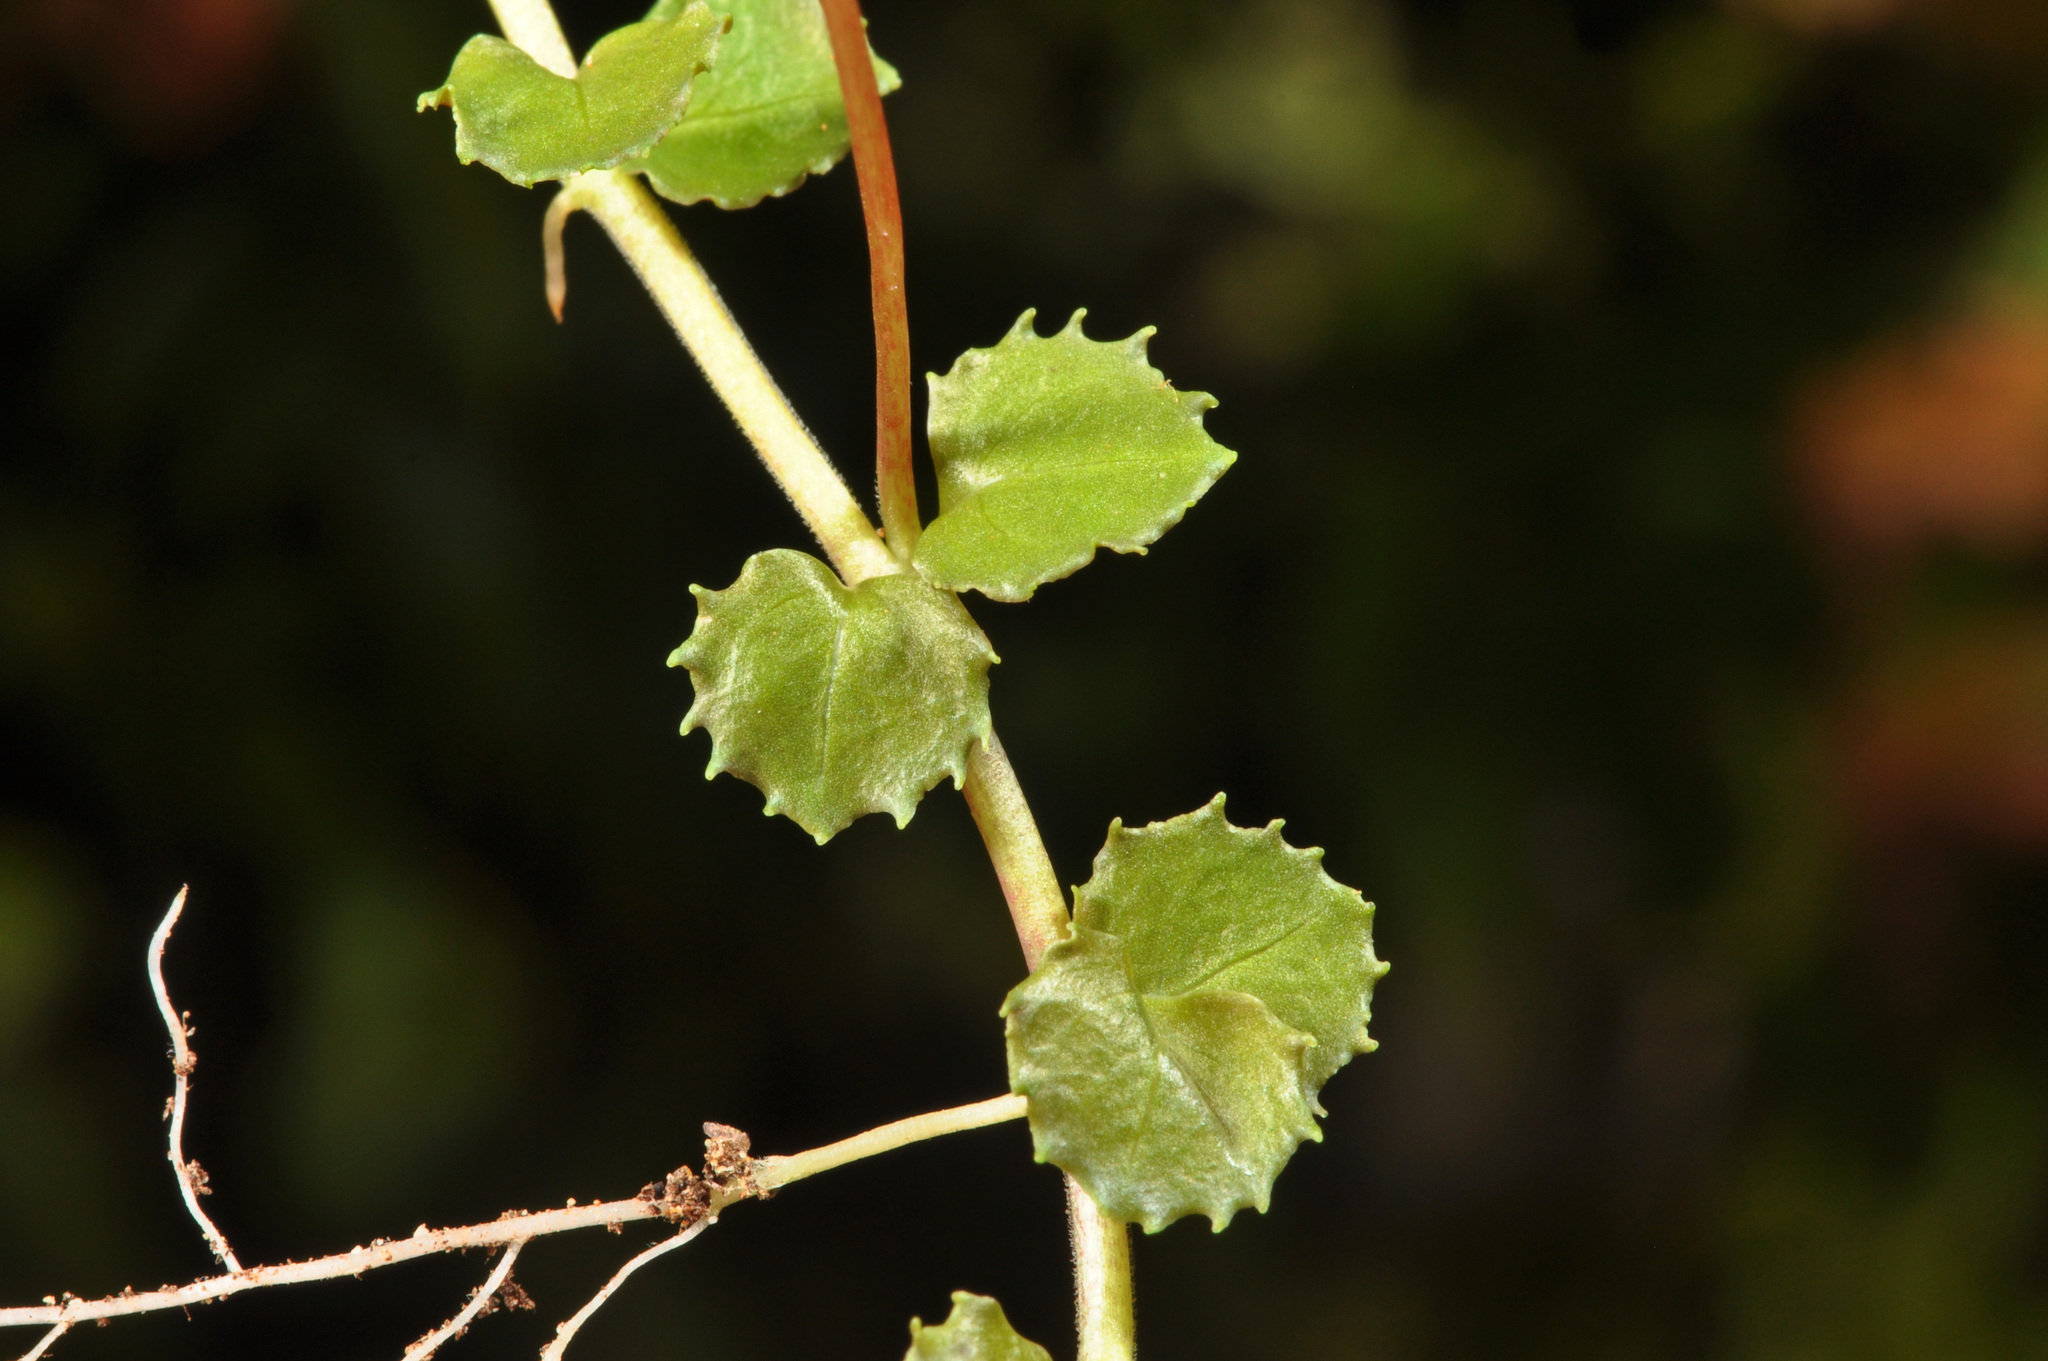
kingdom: Plantae
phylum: Tracheophyta
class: Magnoliopsida
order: Myrtales
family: Onagraceae
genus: Epilobium
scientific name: Epilobium pedunculare
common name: Rockery willowherb
